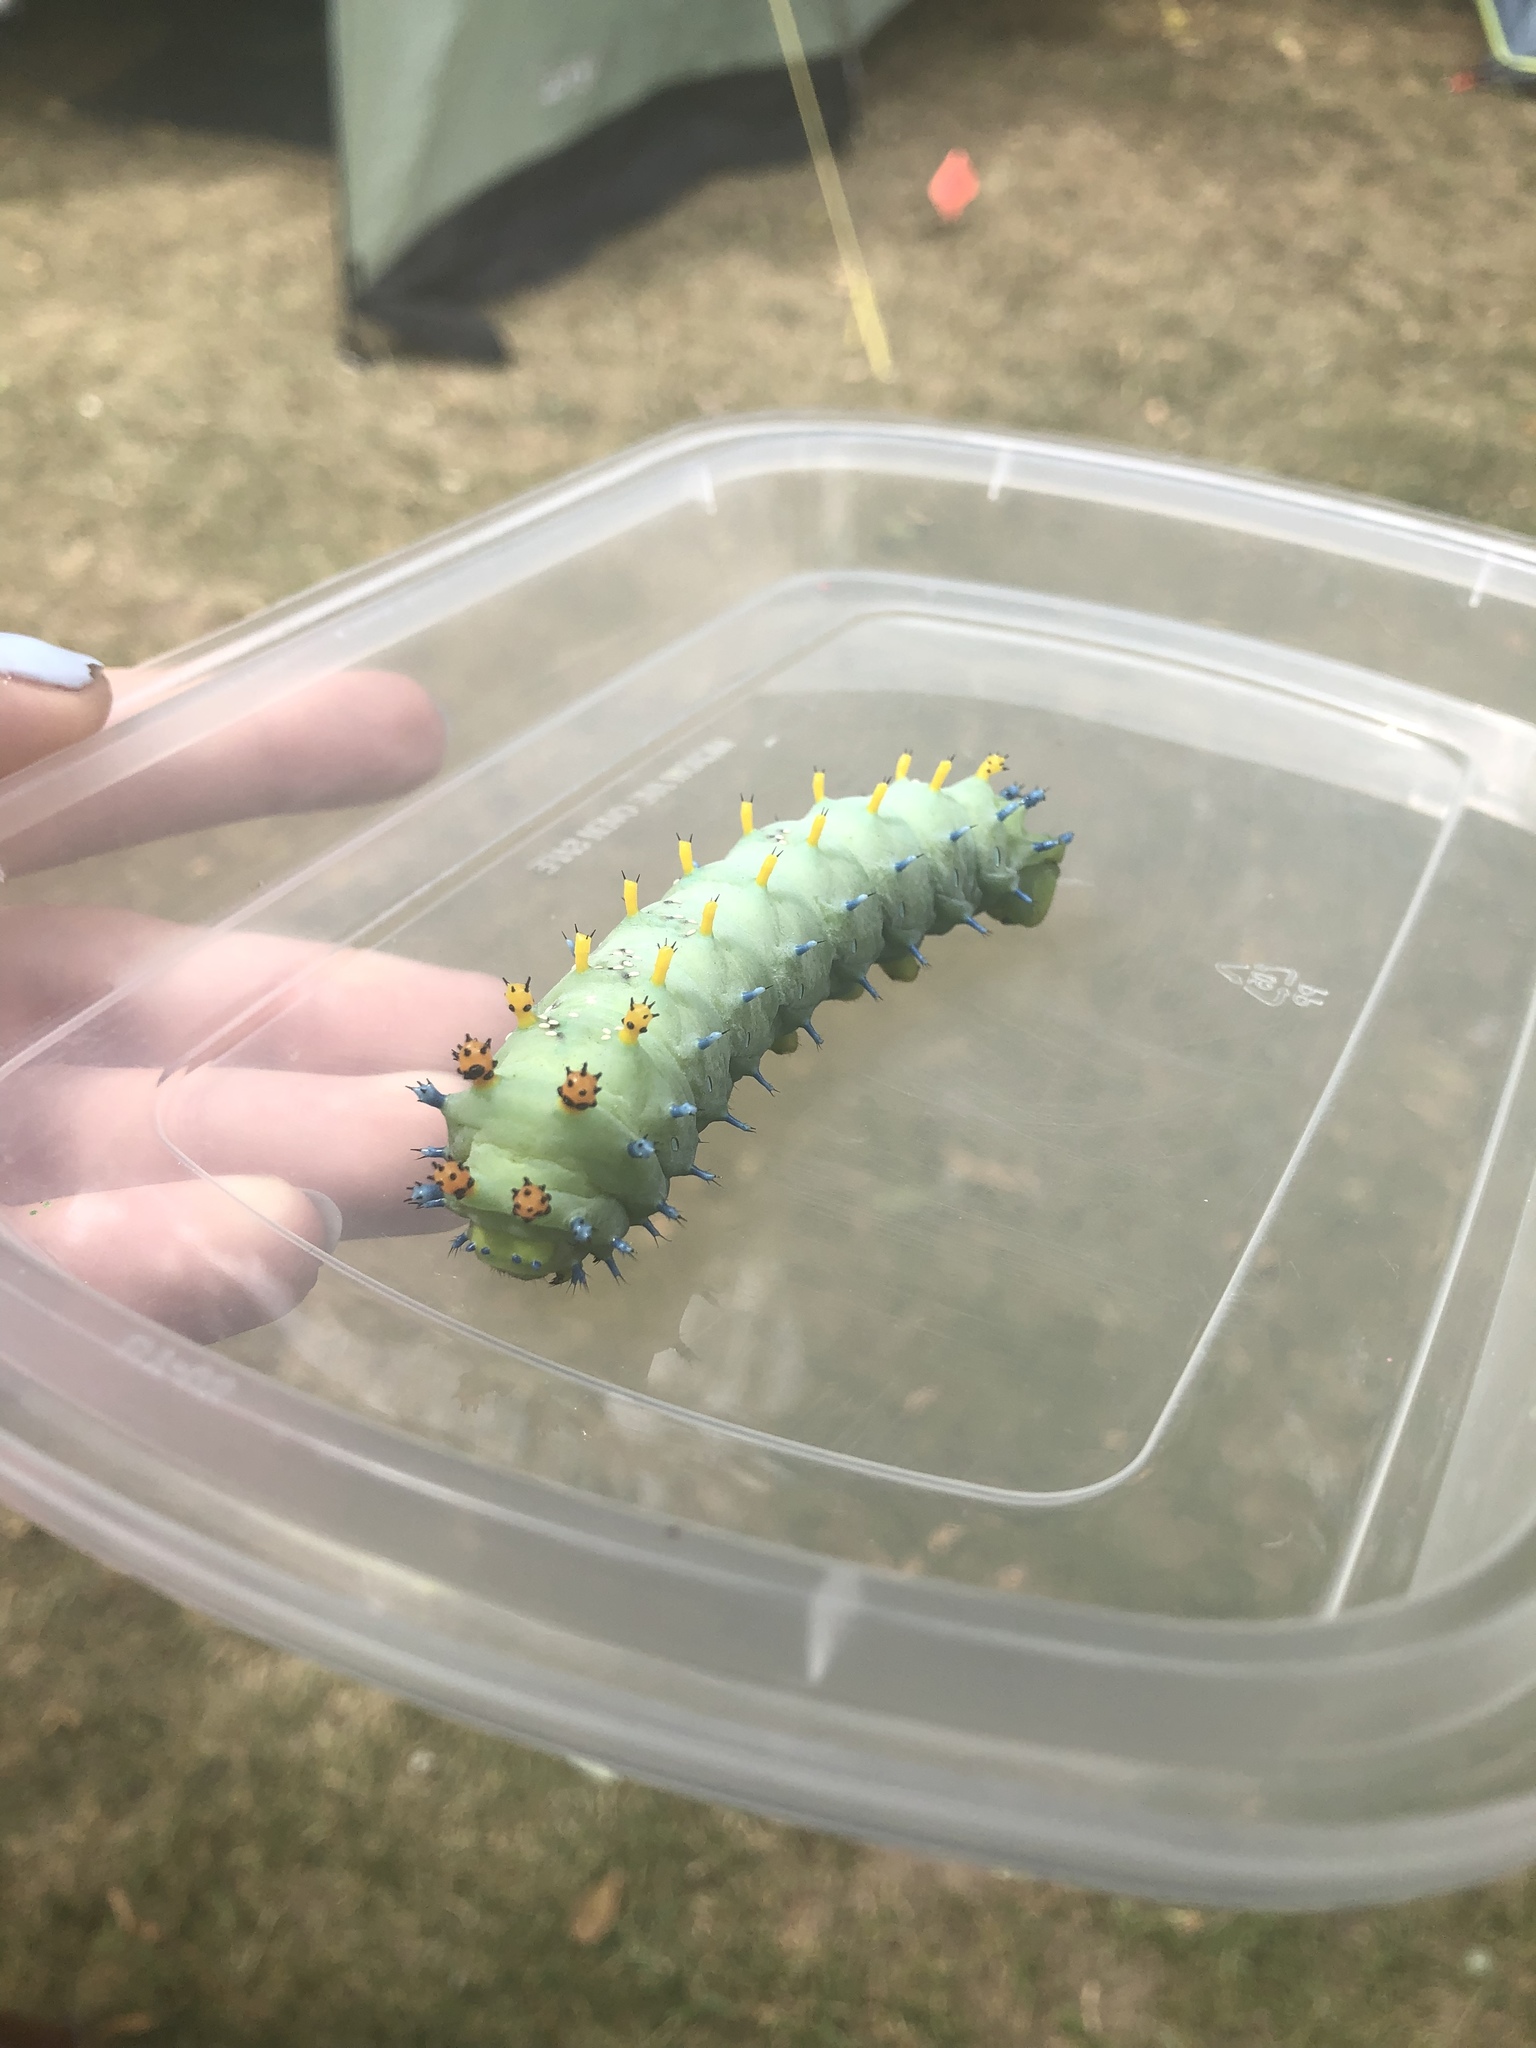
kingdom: Animalia
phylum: Arthropoda
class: Insecta
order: Lepidoptera
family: Saturniidae
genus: Hyalophora
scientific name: Hyalophora cecropia
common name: Cecropia silkmoth
